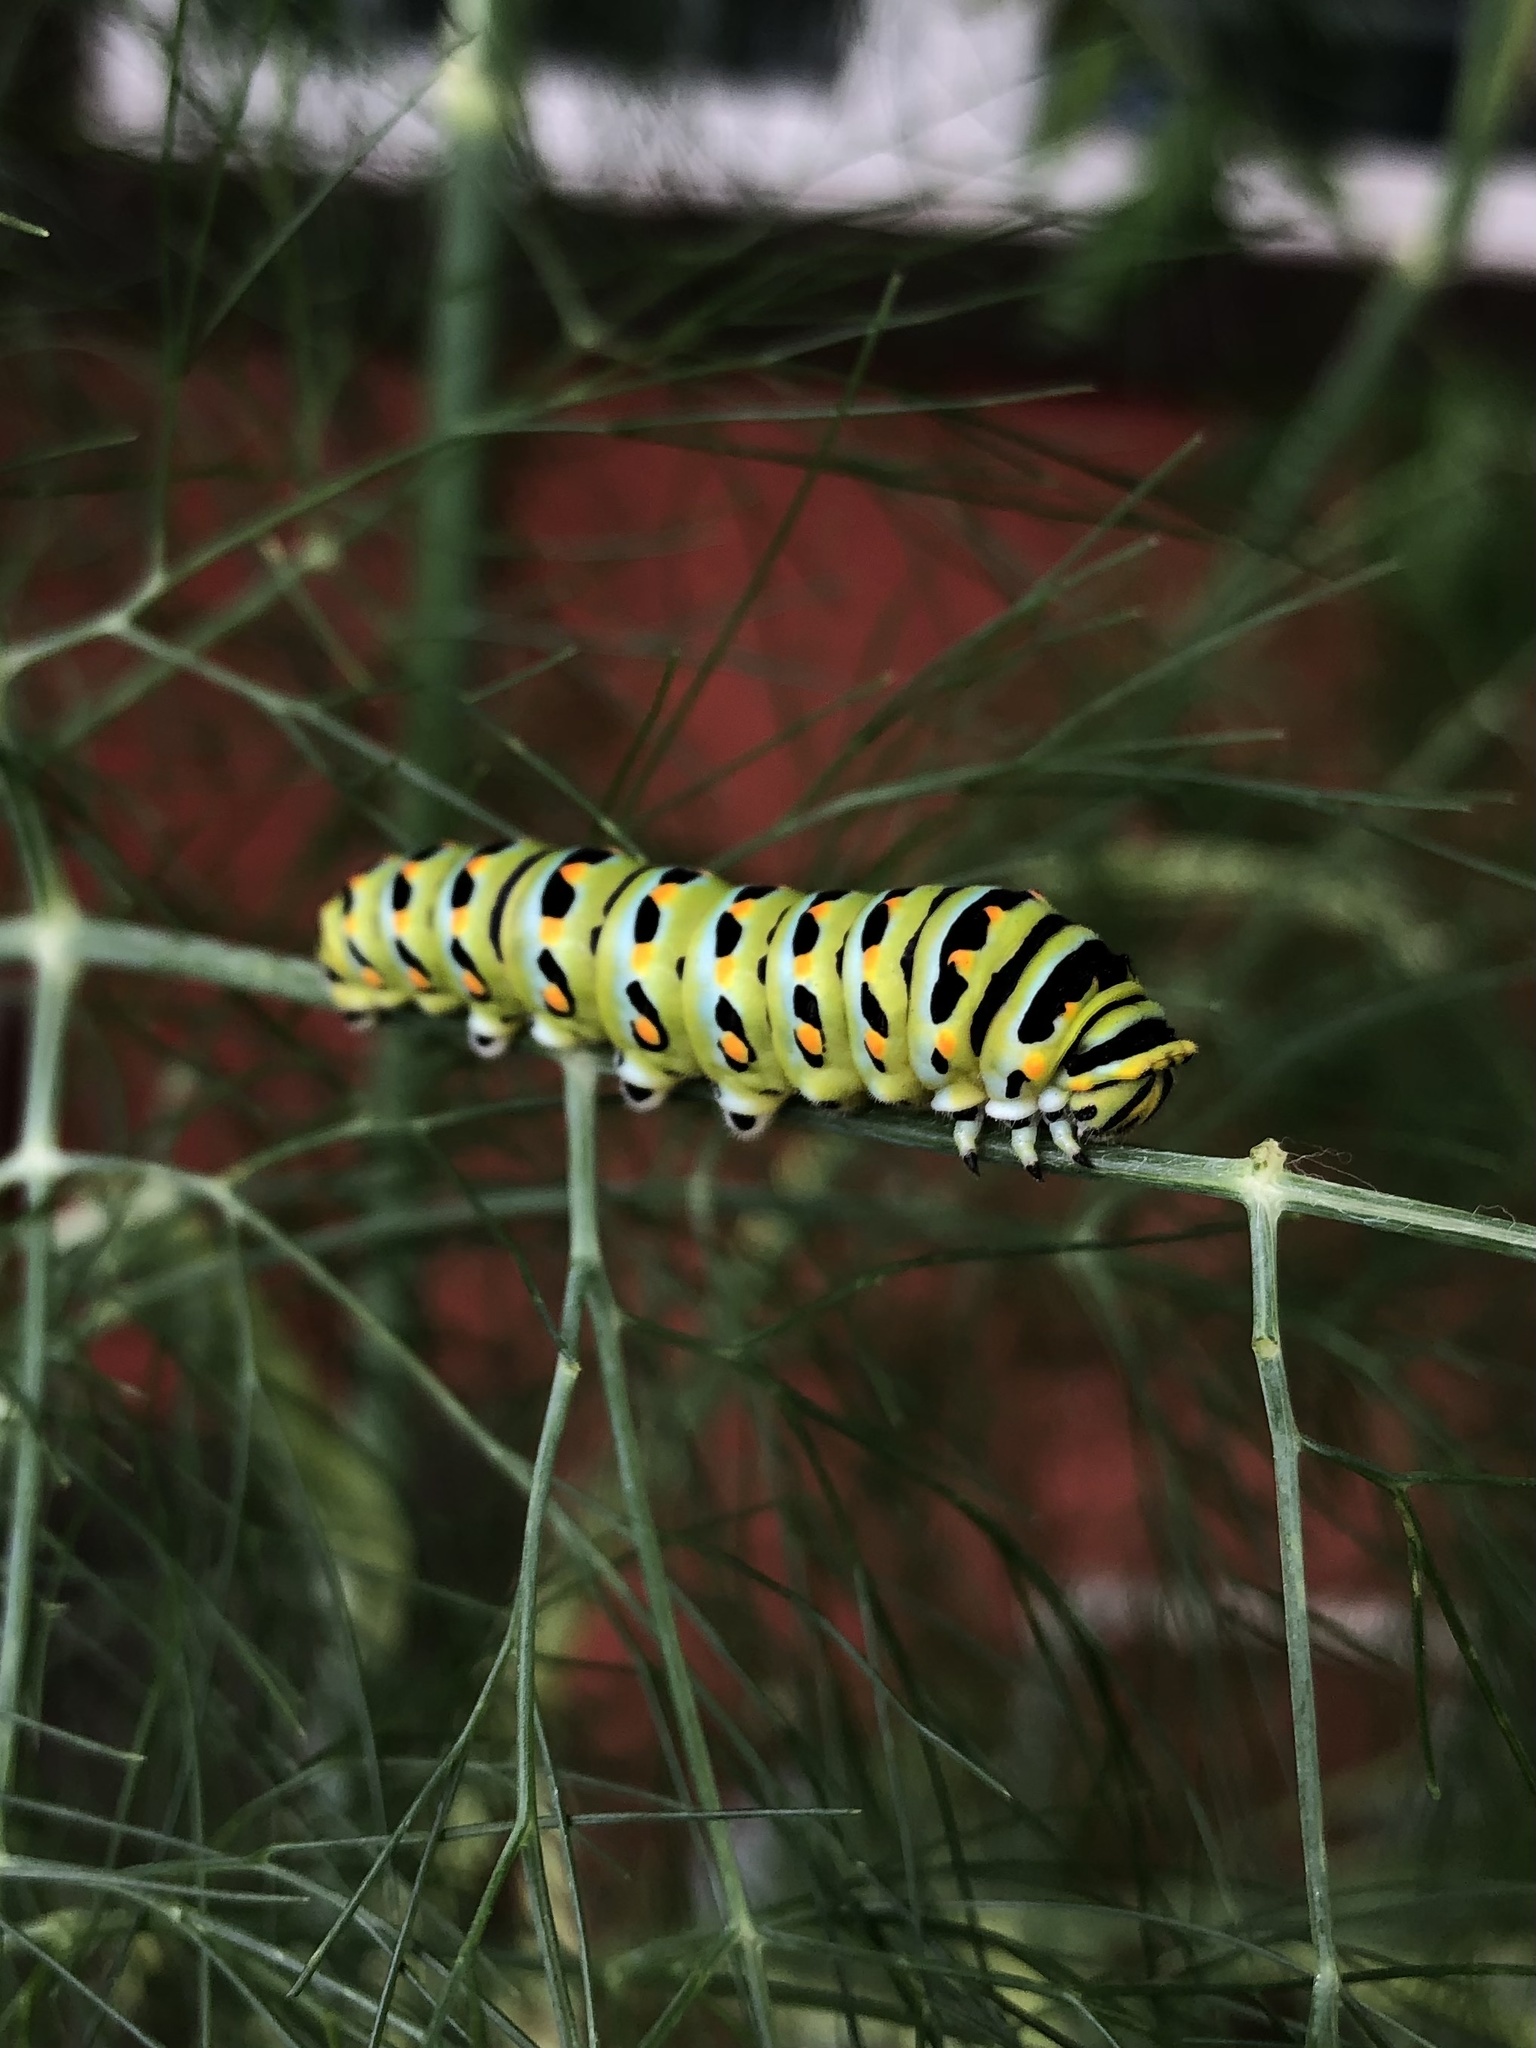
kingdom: Animalia
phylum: Arthropoda
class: Insecta
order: Lepidoptera
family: Papilionidae
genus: Papilio
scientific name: Papilio zelicaon
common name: Anise swallowtail
